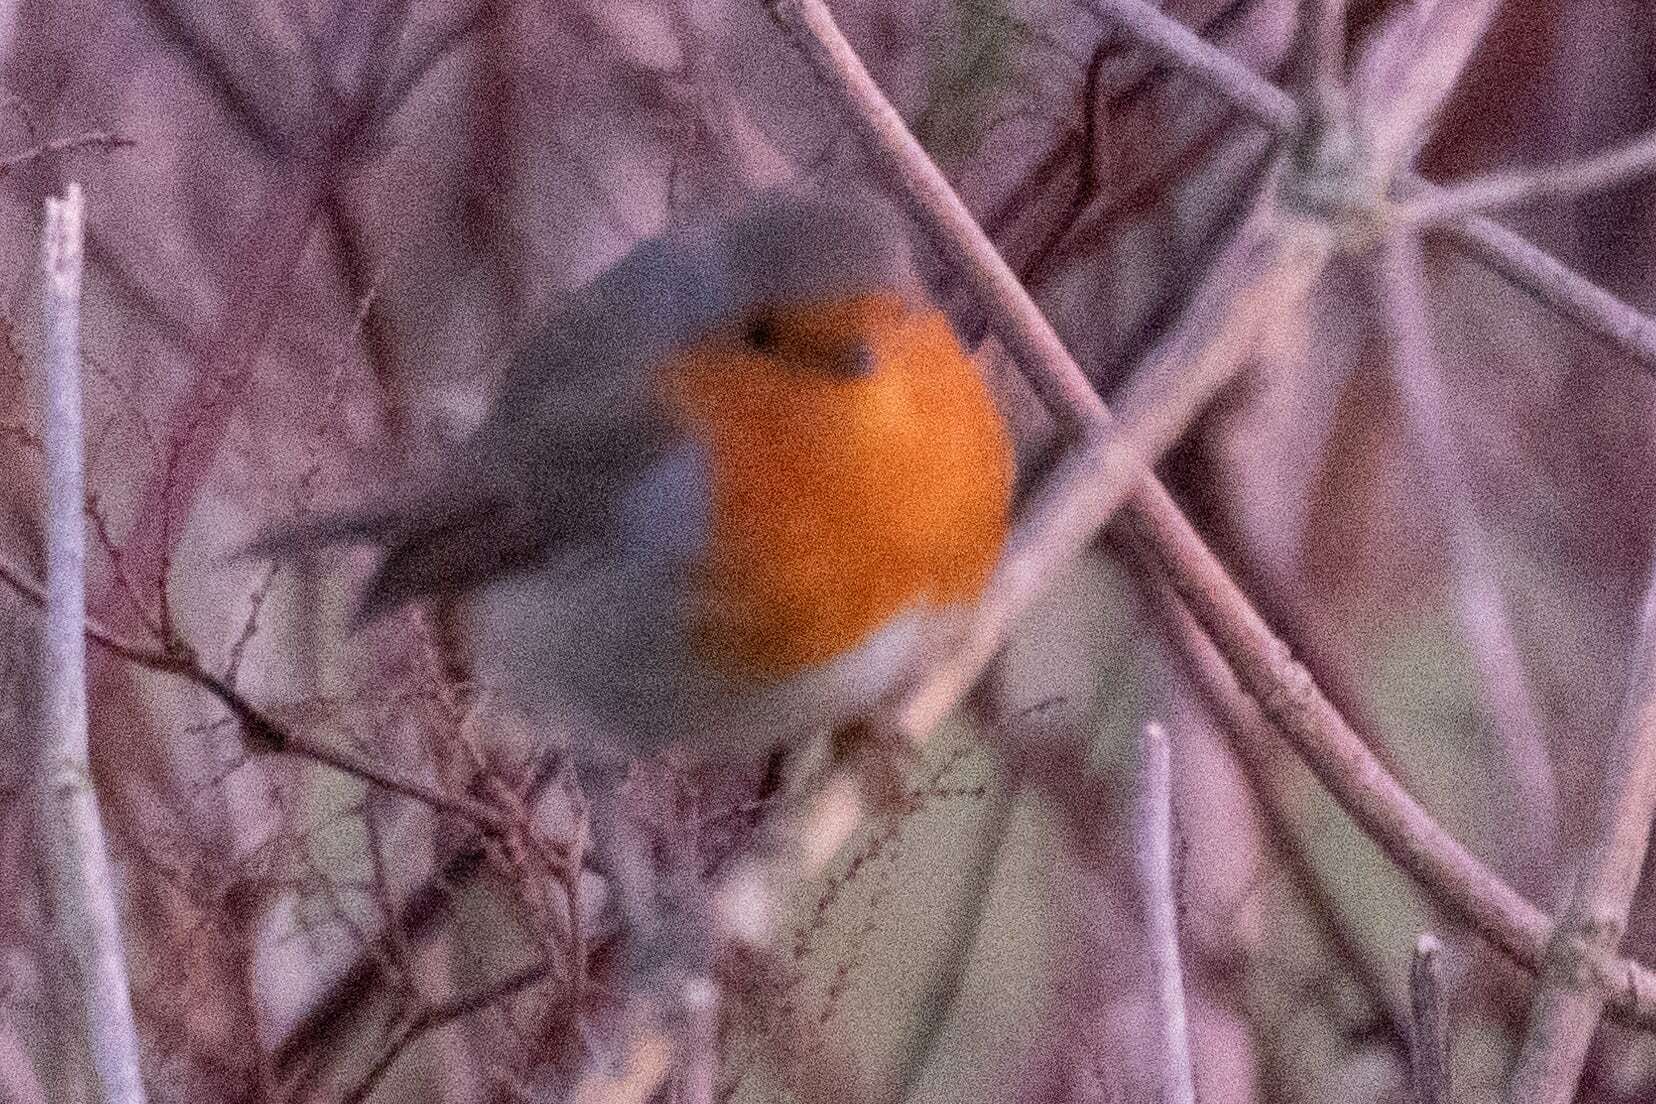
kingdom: Animalia
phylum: Chordata
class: Aves
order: Passeriformes
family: Muscicapidae
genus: Erithacus
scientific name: Erithacus rubecula
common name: European robin
